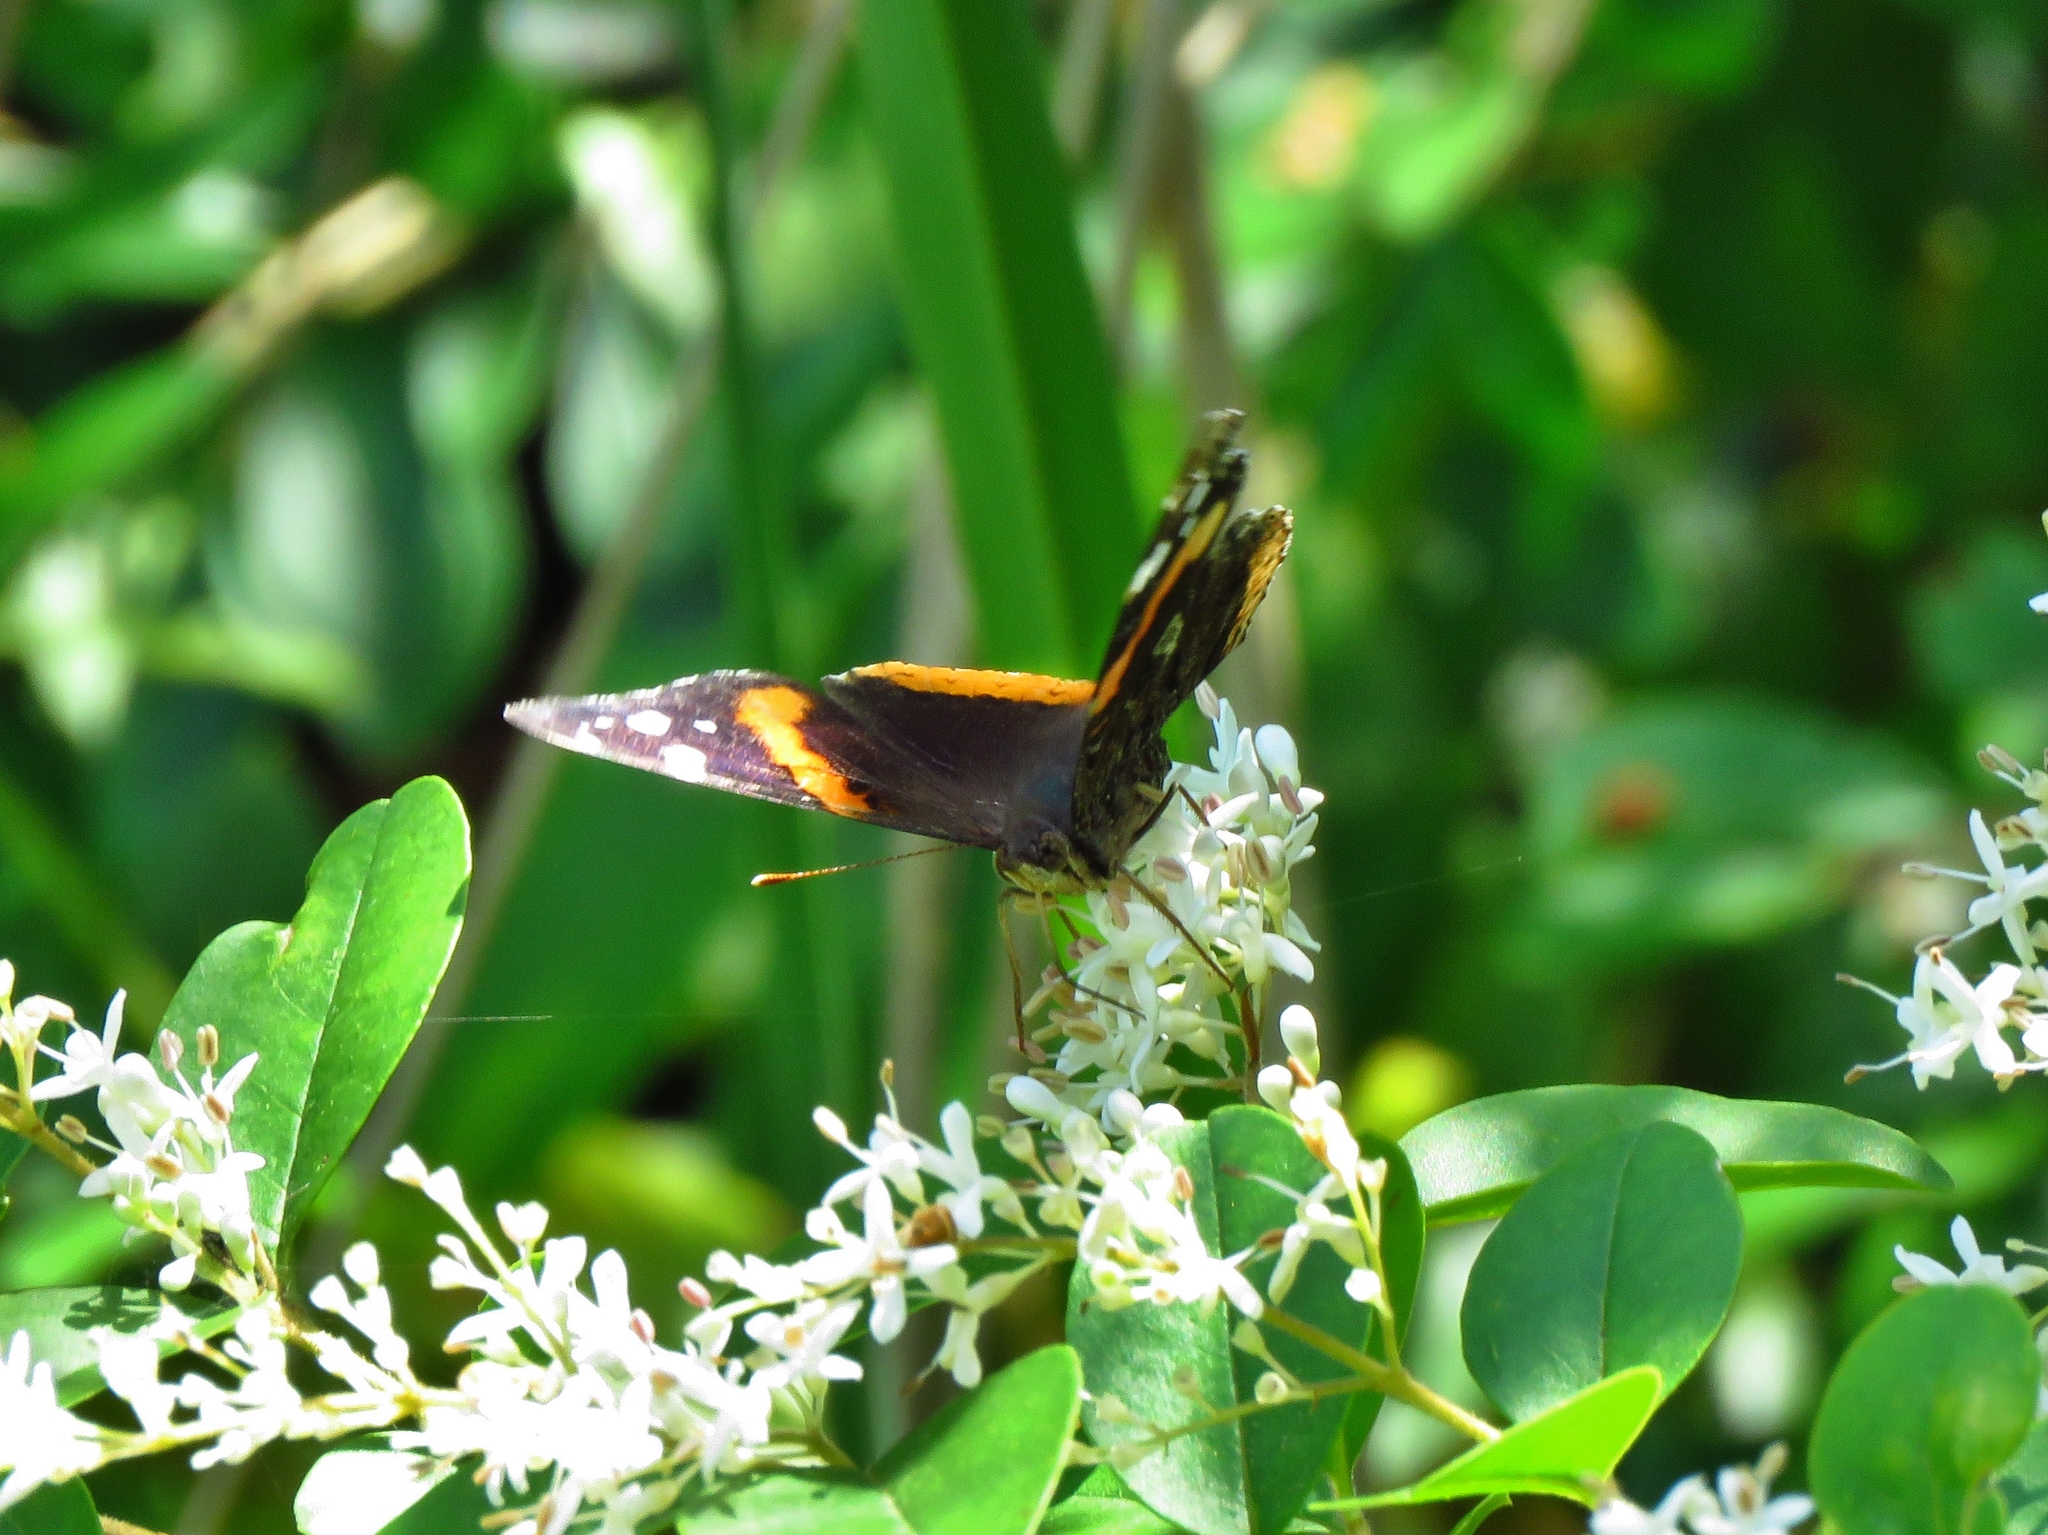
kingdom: Animalia
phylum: Arthropoda
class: Insecta
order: Lepidoptera
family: Nymphalidae
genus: Vanessa
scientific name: Vanessa atalanta
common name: Red admiral
